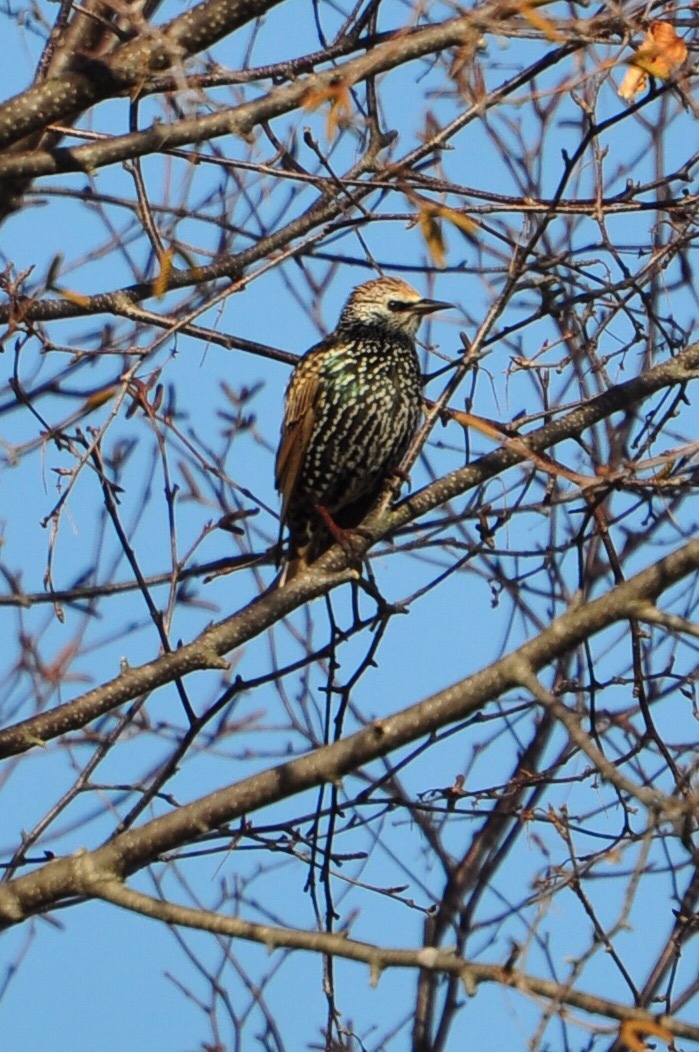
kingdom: Animalia
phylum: Chordata
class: Aves
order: Passeriformes
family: Sturnidae
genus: Sturnus
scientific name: Sturnus vulgaris
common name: Common starling
